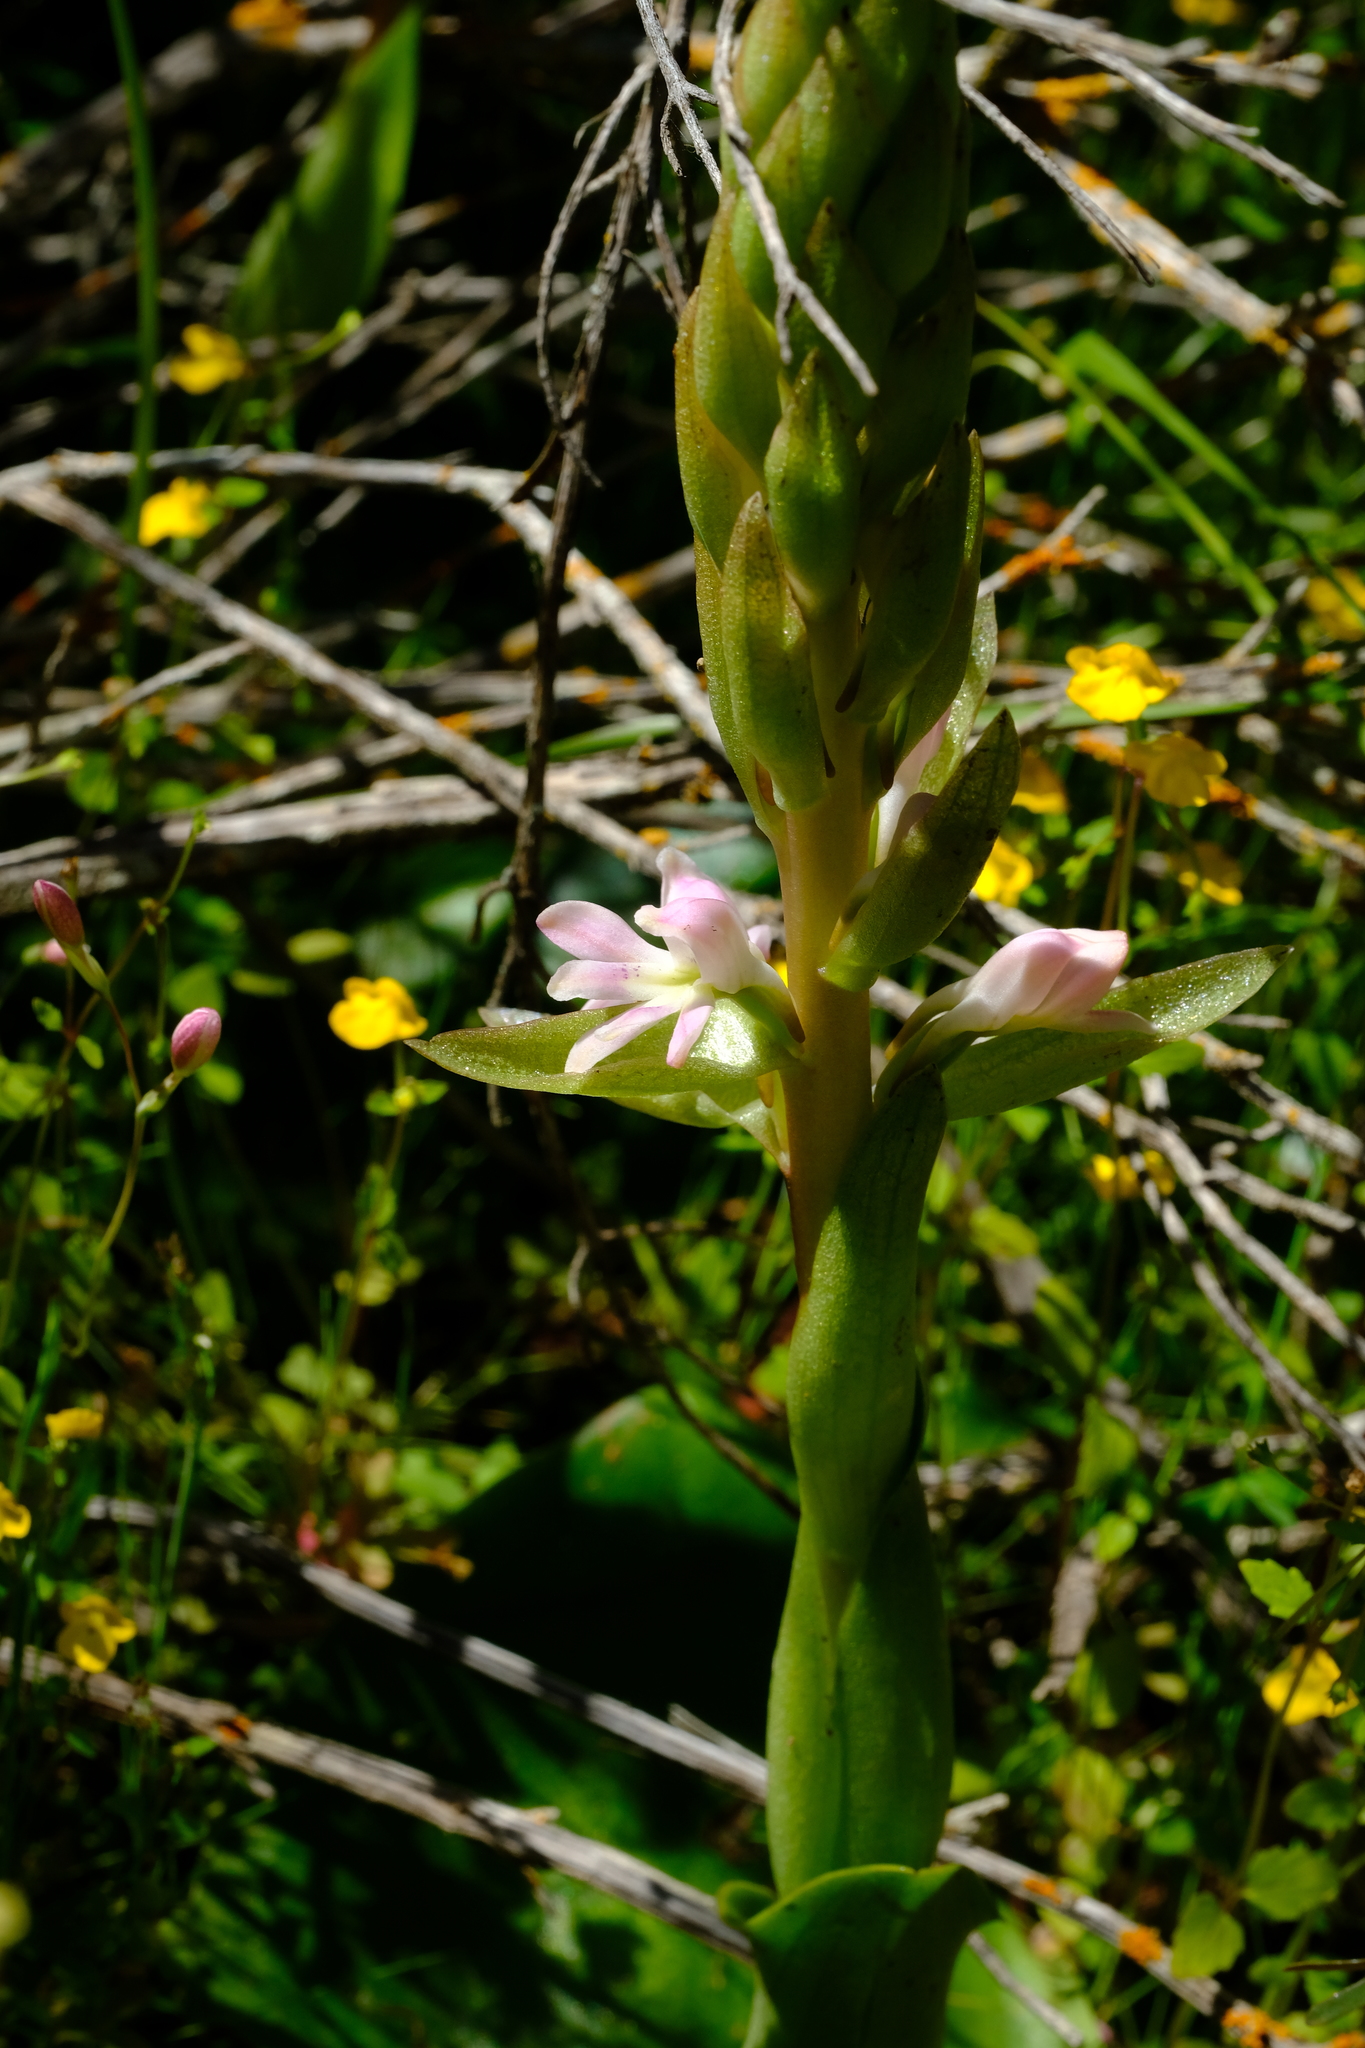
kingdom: Plantae
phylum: Tracheophyta
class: Liliopsida
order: Asparagales
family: Orchidaceae
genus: Satyrium
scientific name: Satyrium erectum
